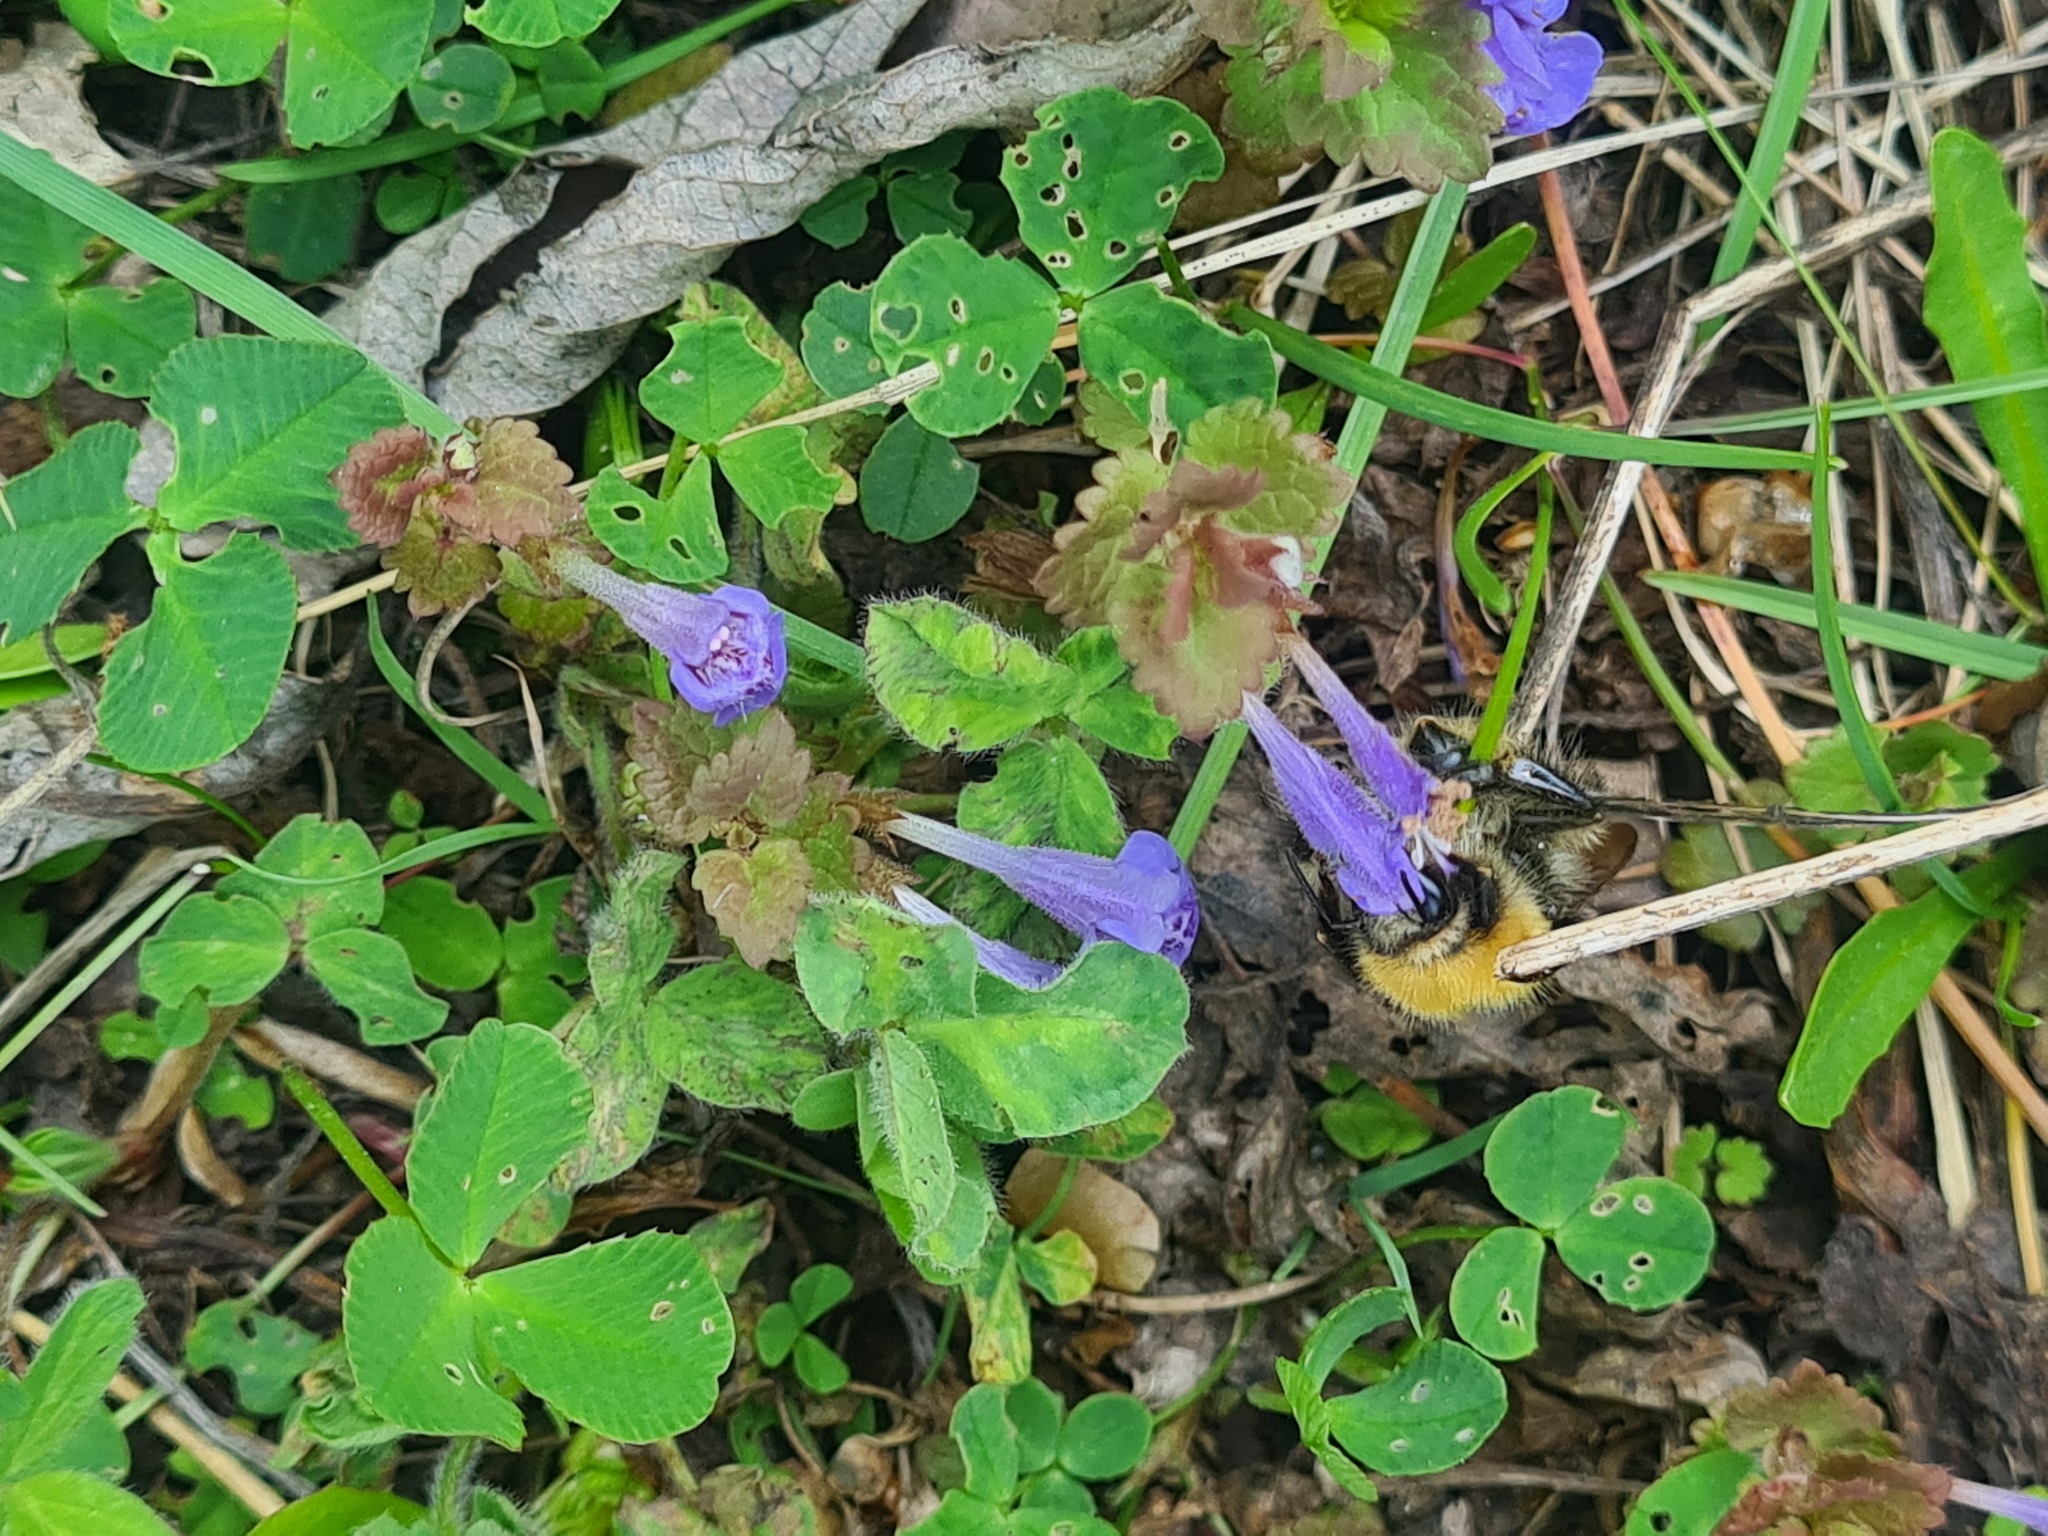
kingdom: Animalia
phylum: Arthropoda
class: Insecta
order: Hymenoptera
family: Apidae
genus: Bombus
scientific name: Bombus pascuorum
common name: Common carder bee
